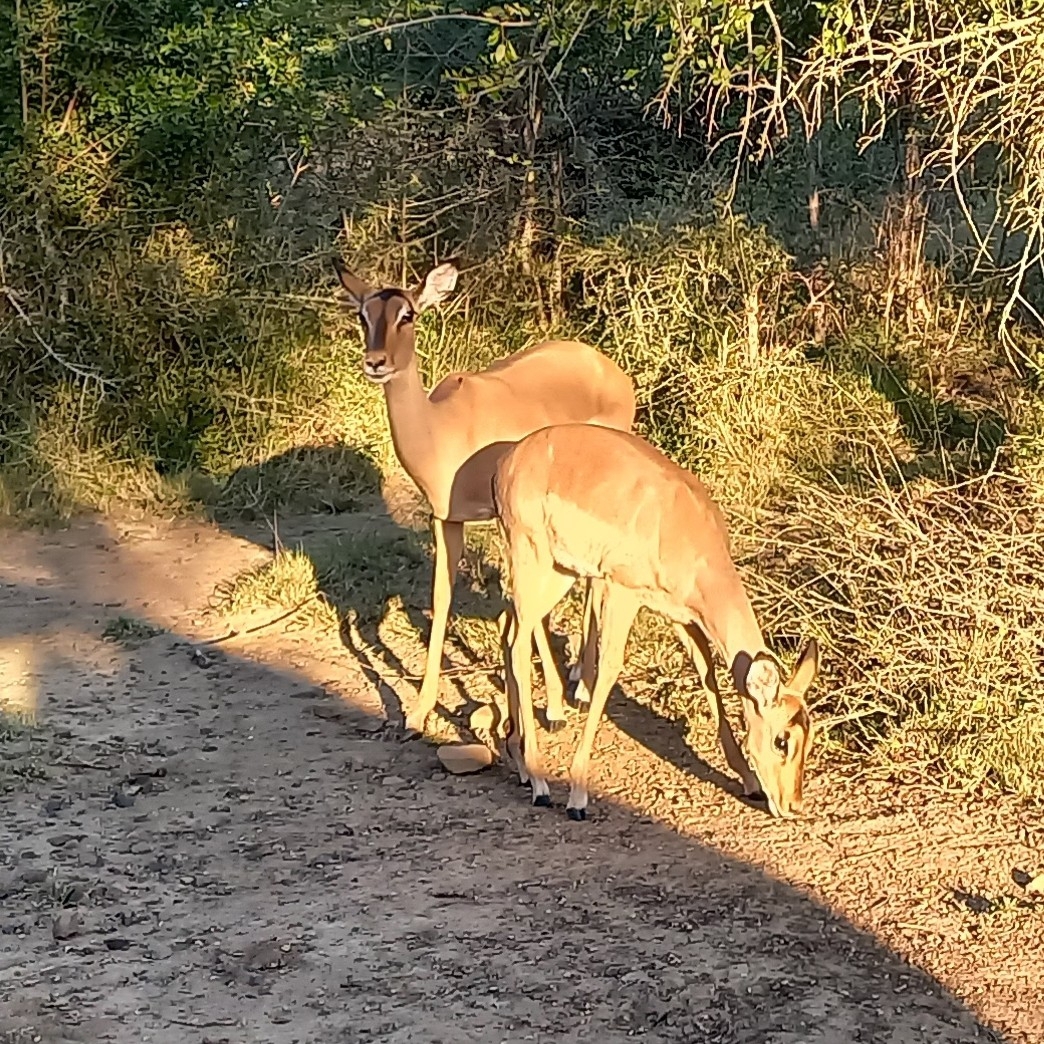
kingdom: Animalia
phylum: Chordata
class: Mammalia
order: Artiodactyla
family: Bovidae
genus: Aepyceros
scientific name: Aepyceros melampus
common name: Impala
